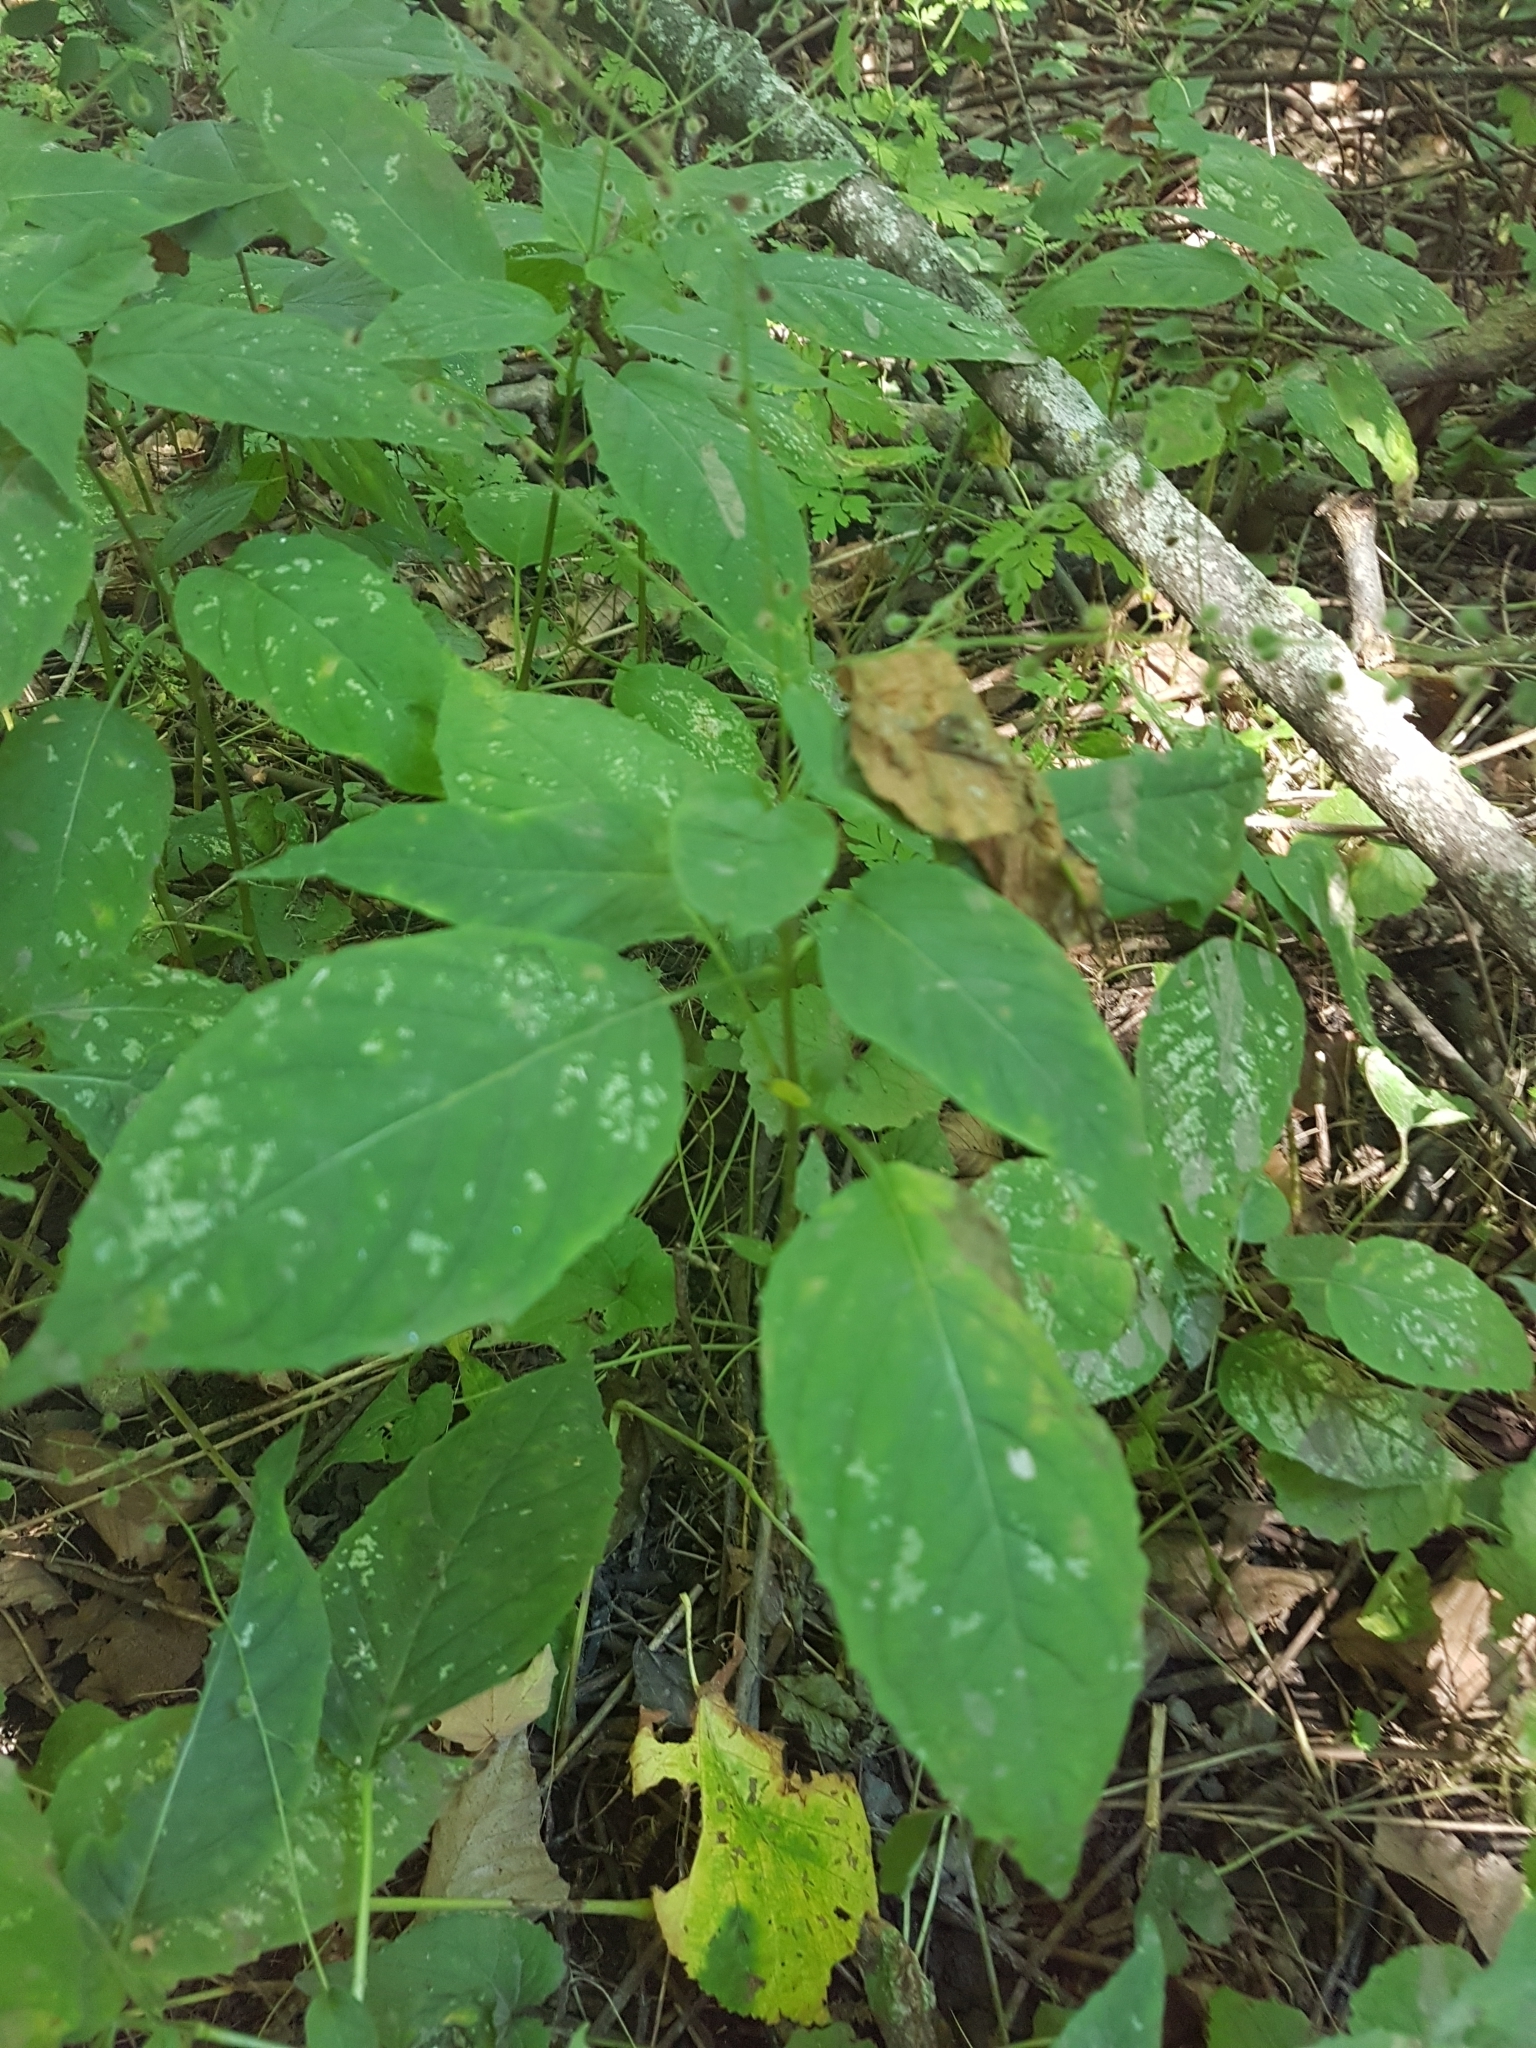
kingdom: Plantae
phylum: Tracheophyta
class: Magnoliopsida
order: Myrtales
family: Onagraceae
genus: Circaea
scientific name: Circaea canadensis
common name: Broad-leaved enchanter's nightshade
